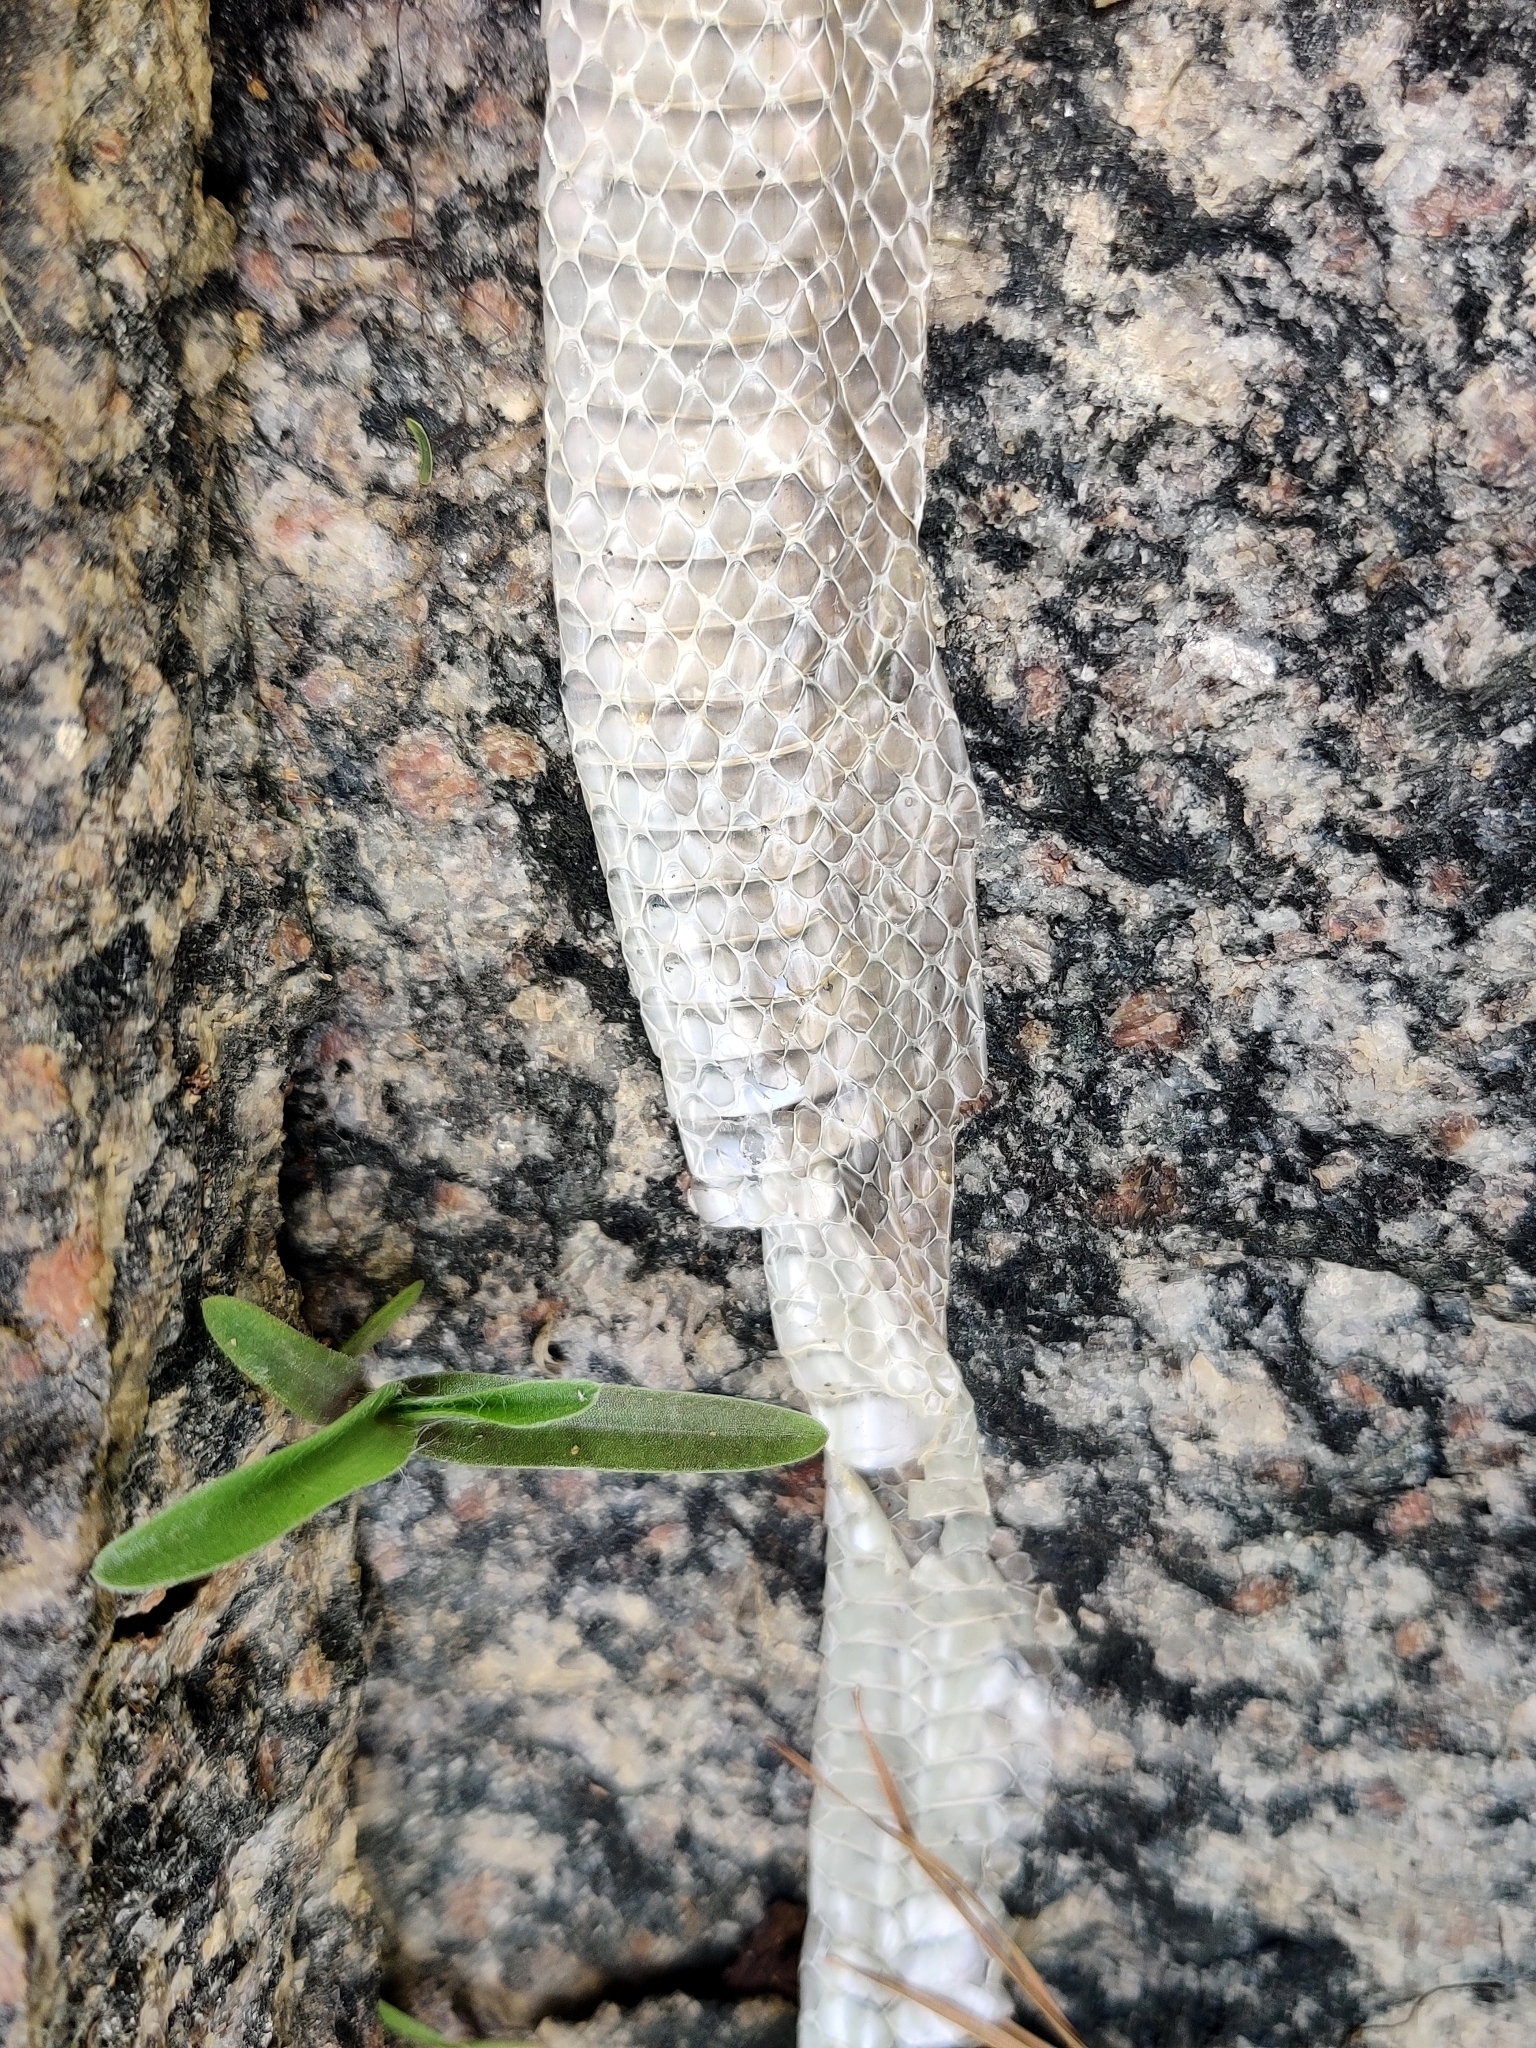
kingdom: Animalia
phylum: Chordata
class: Squamata
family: Colubridae
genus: Ptyas
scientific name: Ptyas mucosa
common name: Oriental ratsnake
